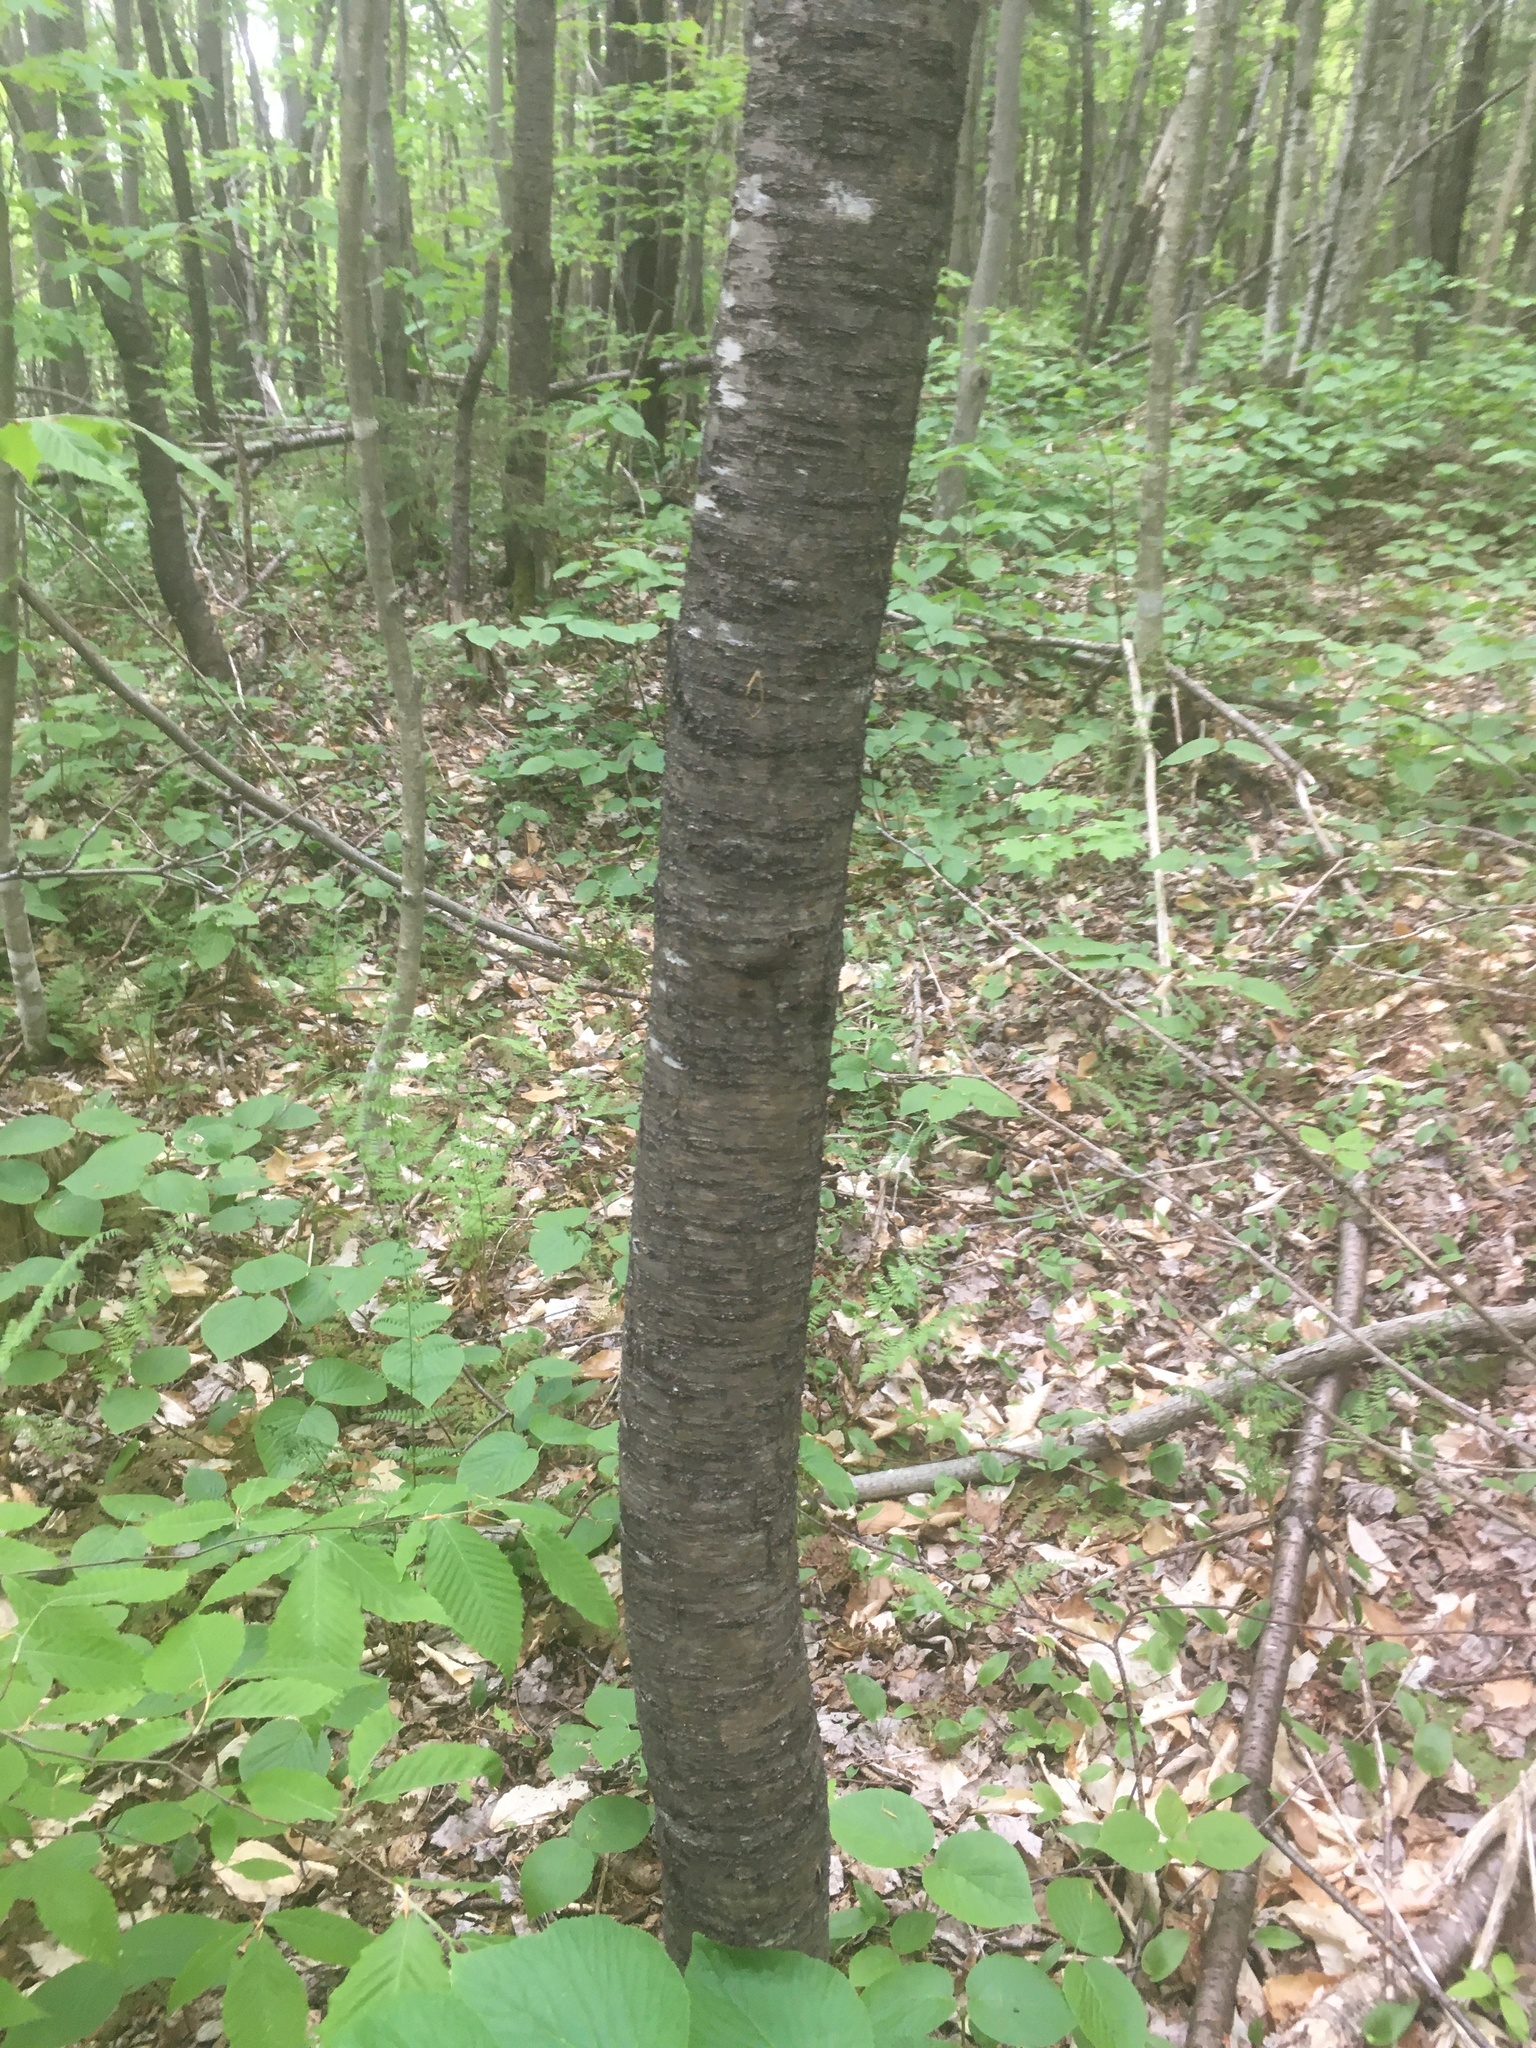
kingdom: Plantae
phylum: Tracheophyta
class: Magnoliopsida
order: Rosales
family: Rosaceae
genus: Prunus
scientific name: Prunus pensylvanica
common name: Pin cherry
